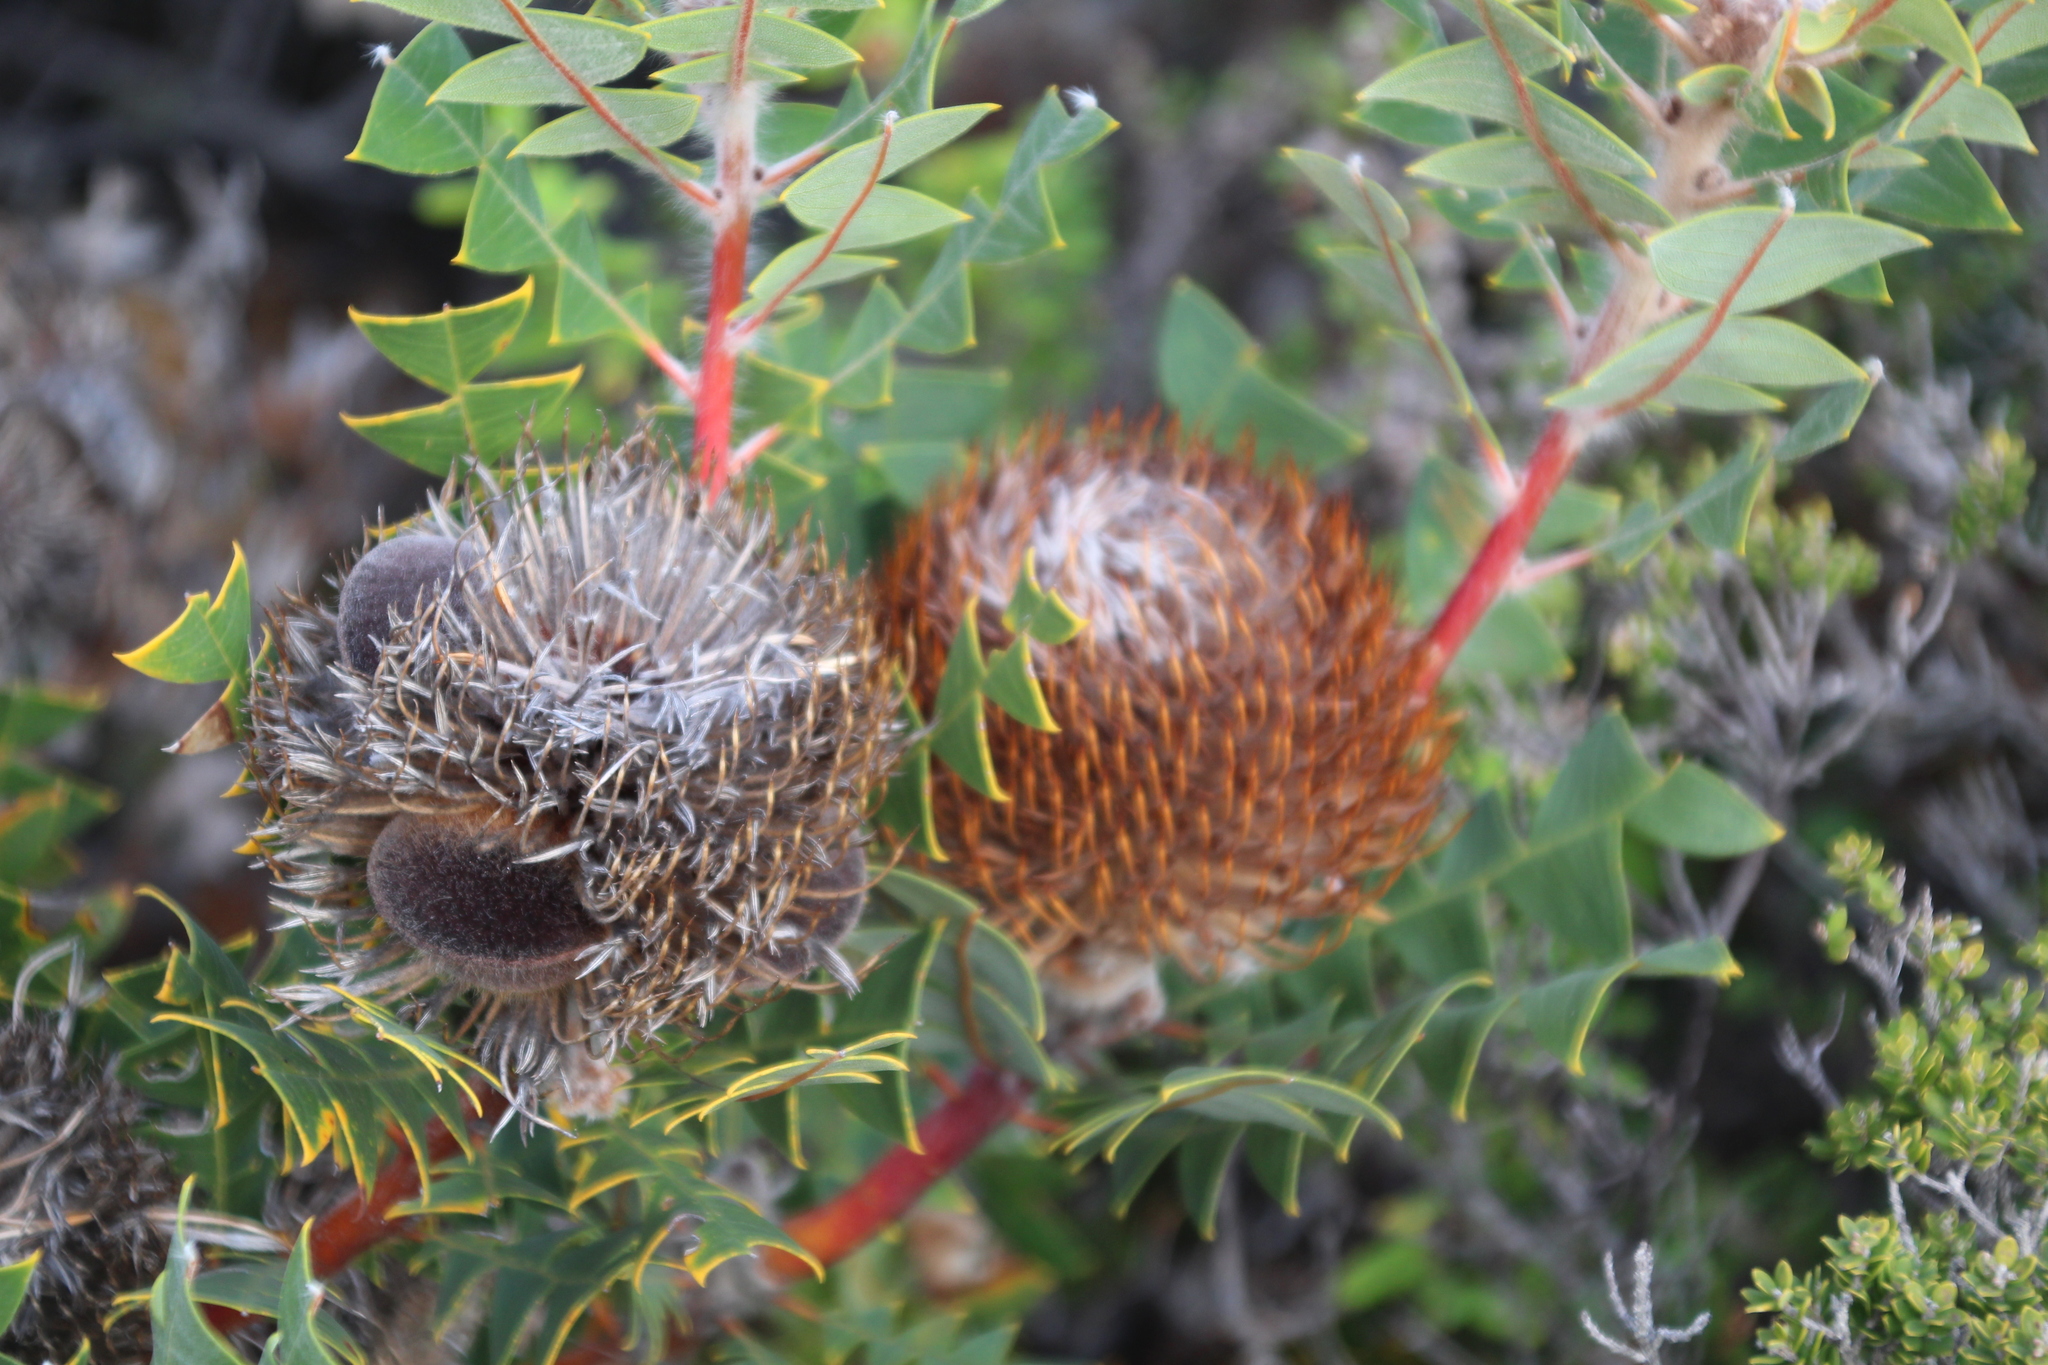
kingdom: Plantae
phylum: Tracheophyta
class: Magnoliopsida
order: Proteales
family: Proteaceae
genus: Banksia
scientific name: Banksia baxteri
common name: Bird's-nest banksia
